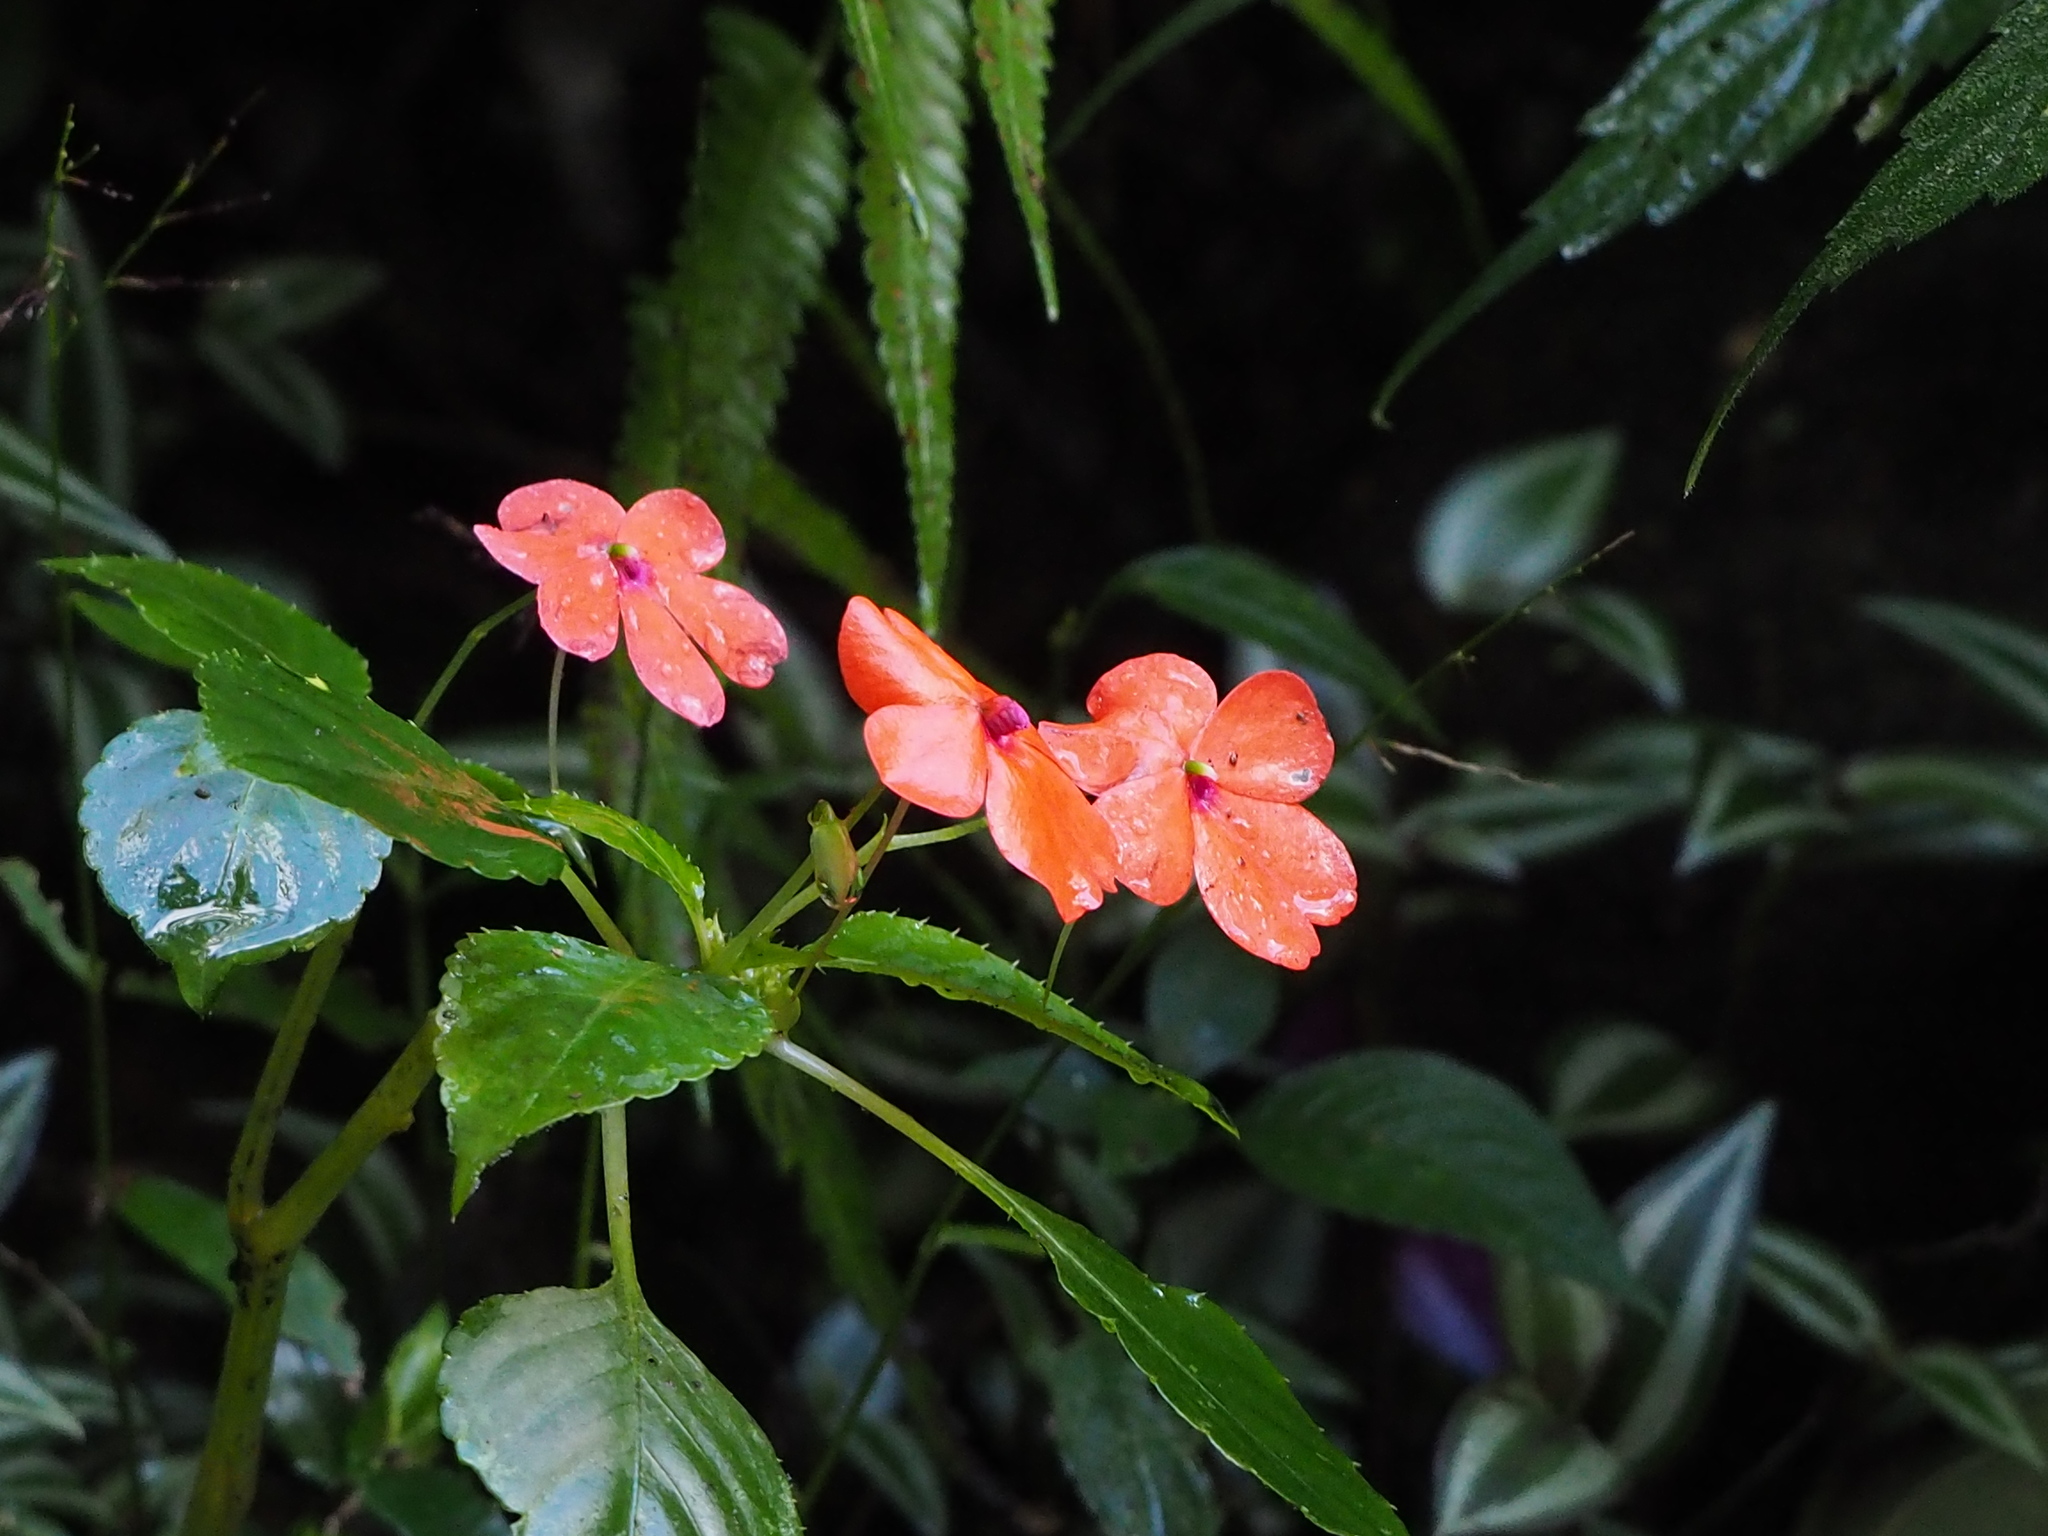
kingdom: Plantae
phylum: Tracheophyta
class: Magnoliopsida
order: Ericales
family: Balsaminaceae
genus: Impatiens
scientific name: Impatiens walleriana
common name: Buzzy lizzy
